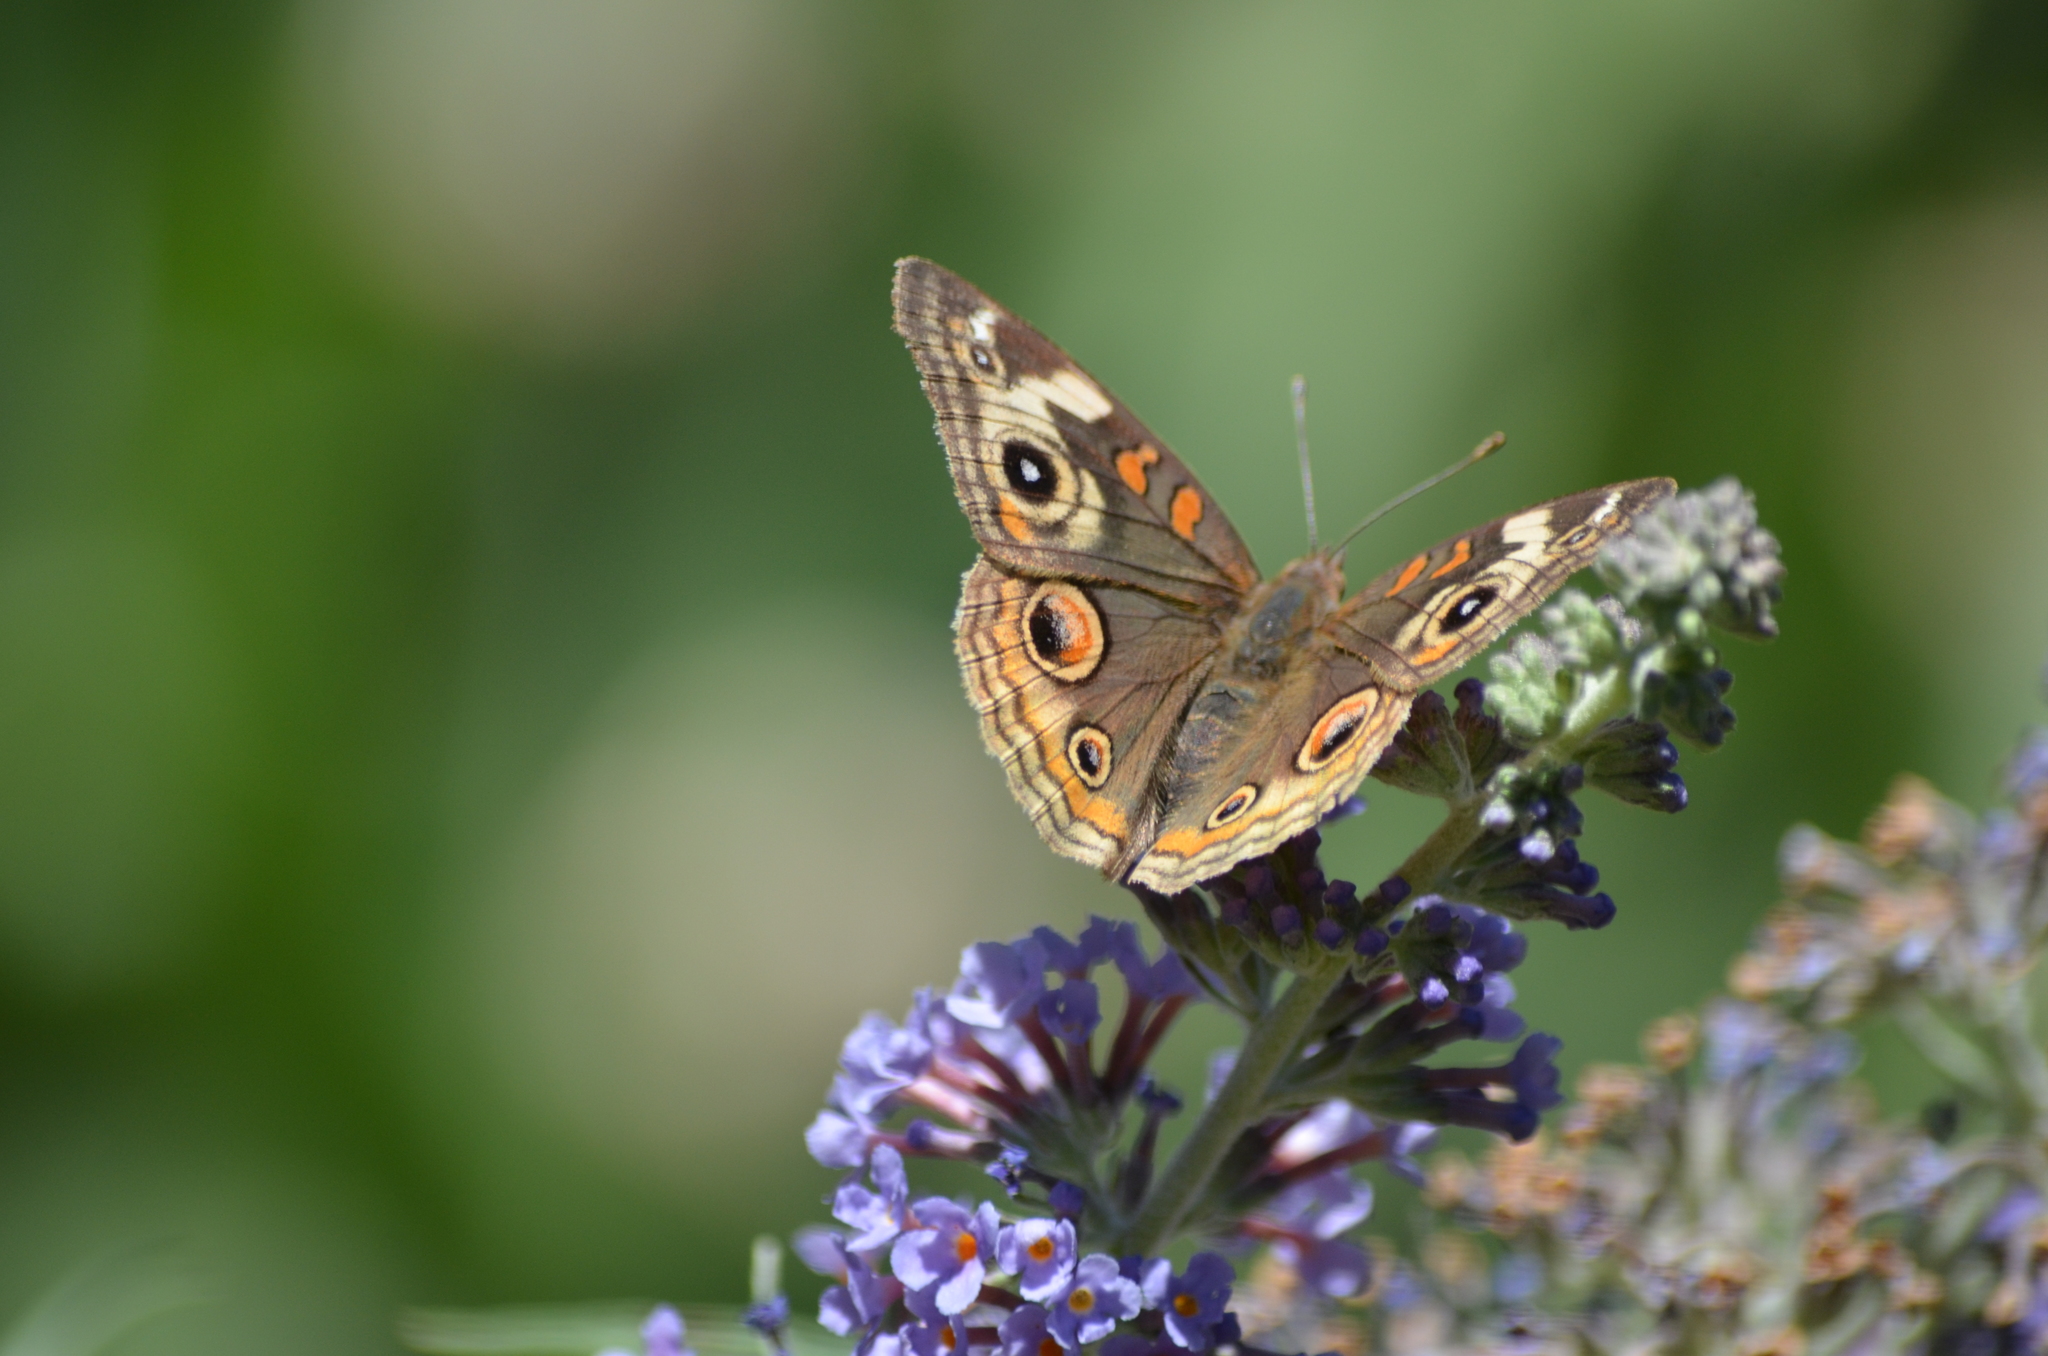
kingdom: Animalia
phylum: Arthropoda
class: Insecta
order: Lepidoptera
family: Nymphalidae
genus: Junonia
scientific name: Junonia grisea
